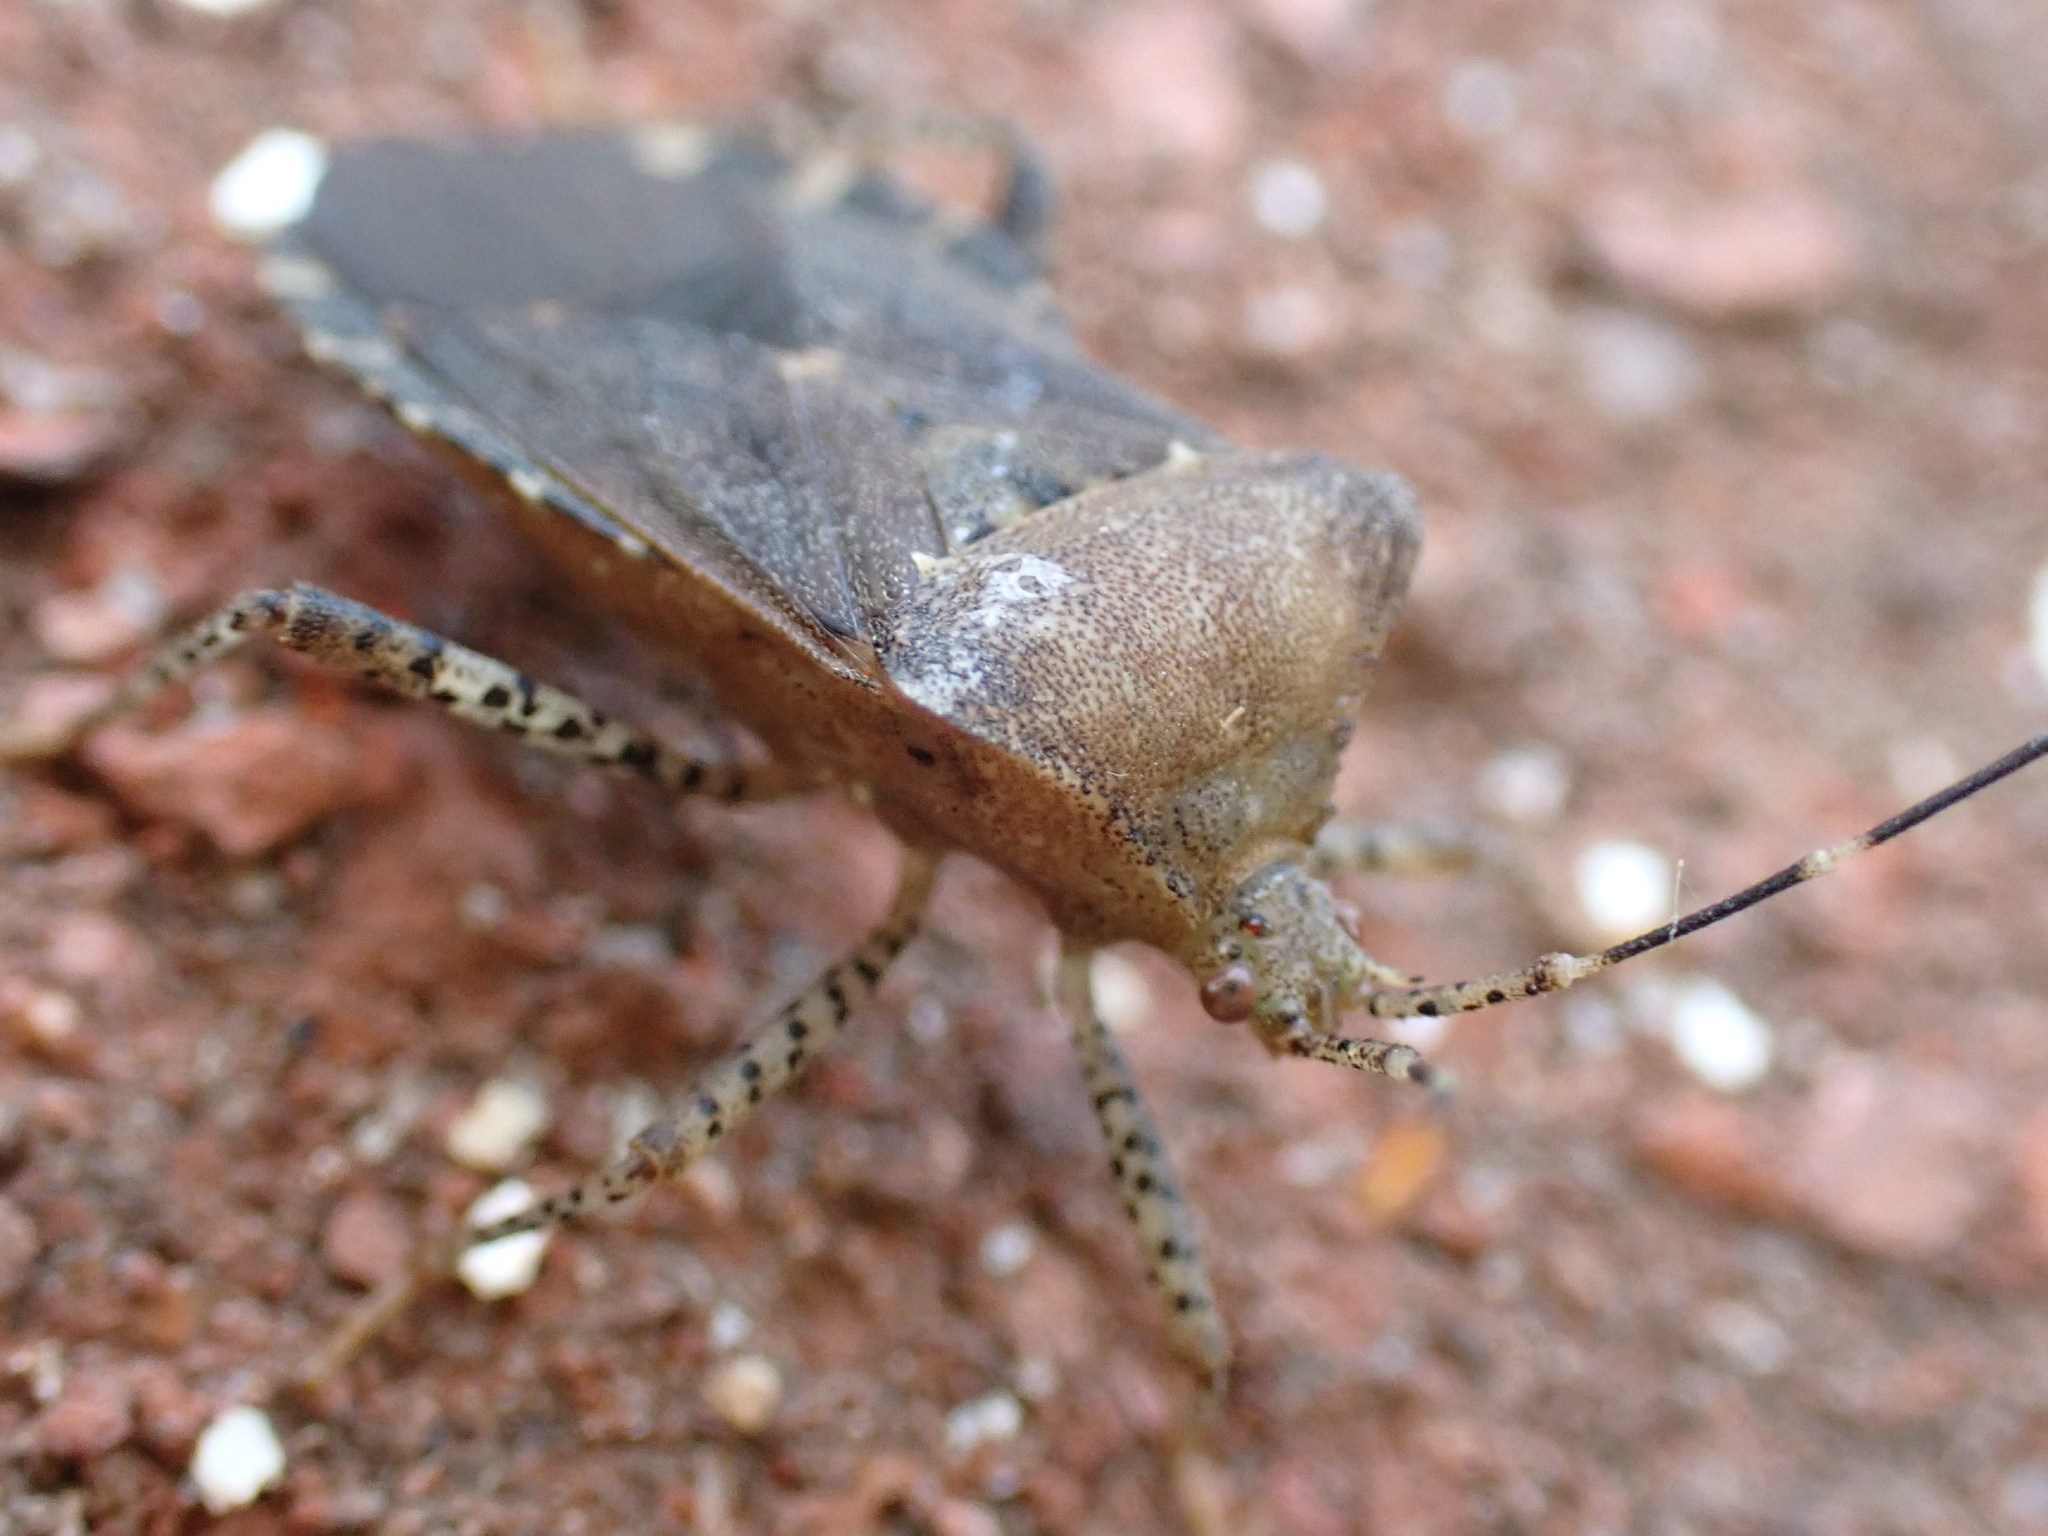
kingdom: Animalia
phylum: Arthropoda
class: Insecta
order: Hemiptera
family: Coreidae
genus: Anasa
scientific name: Anasa armigera
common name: Horned squash bug
